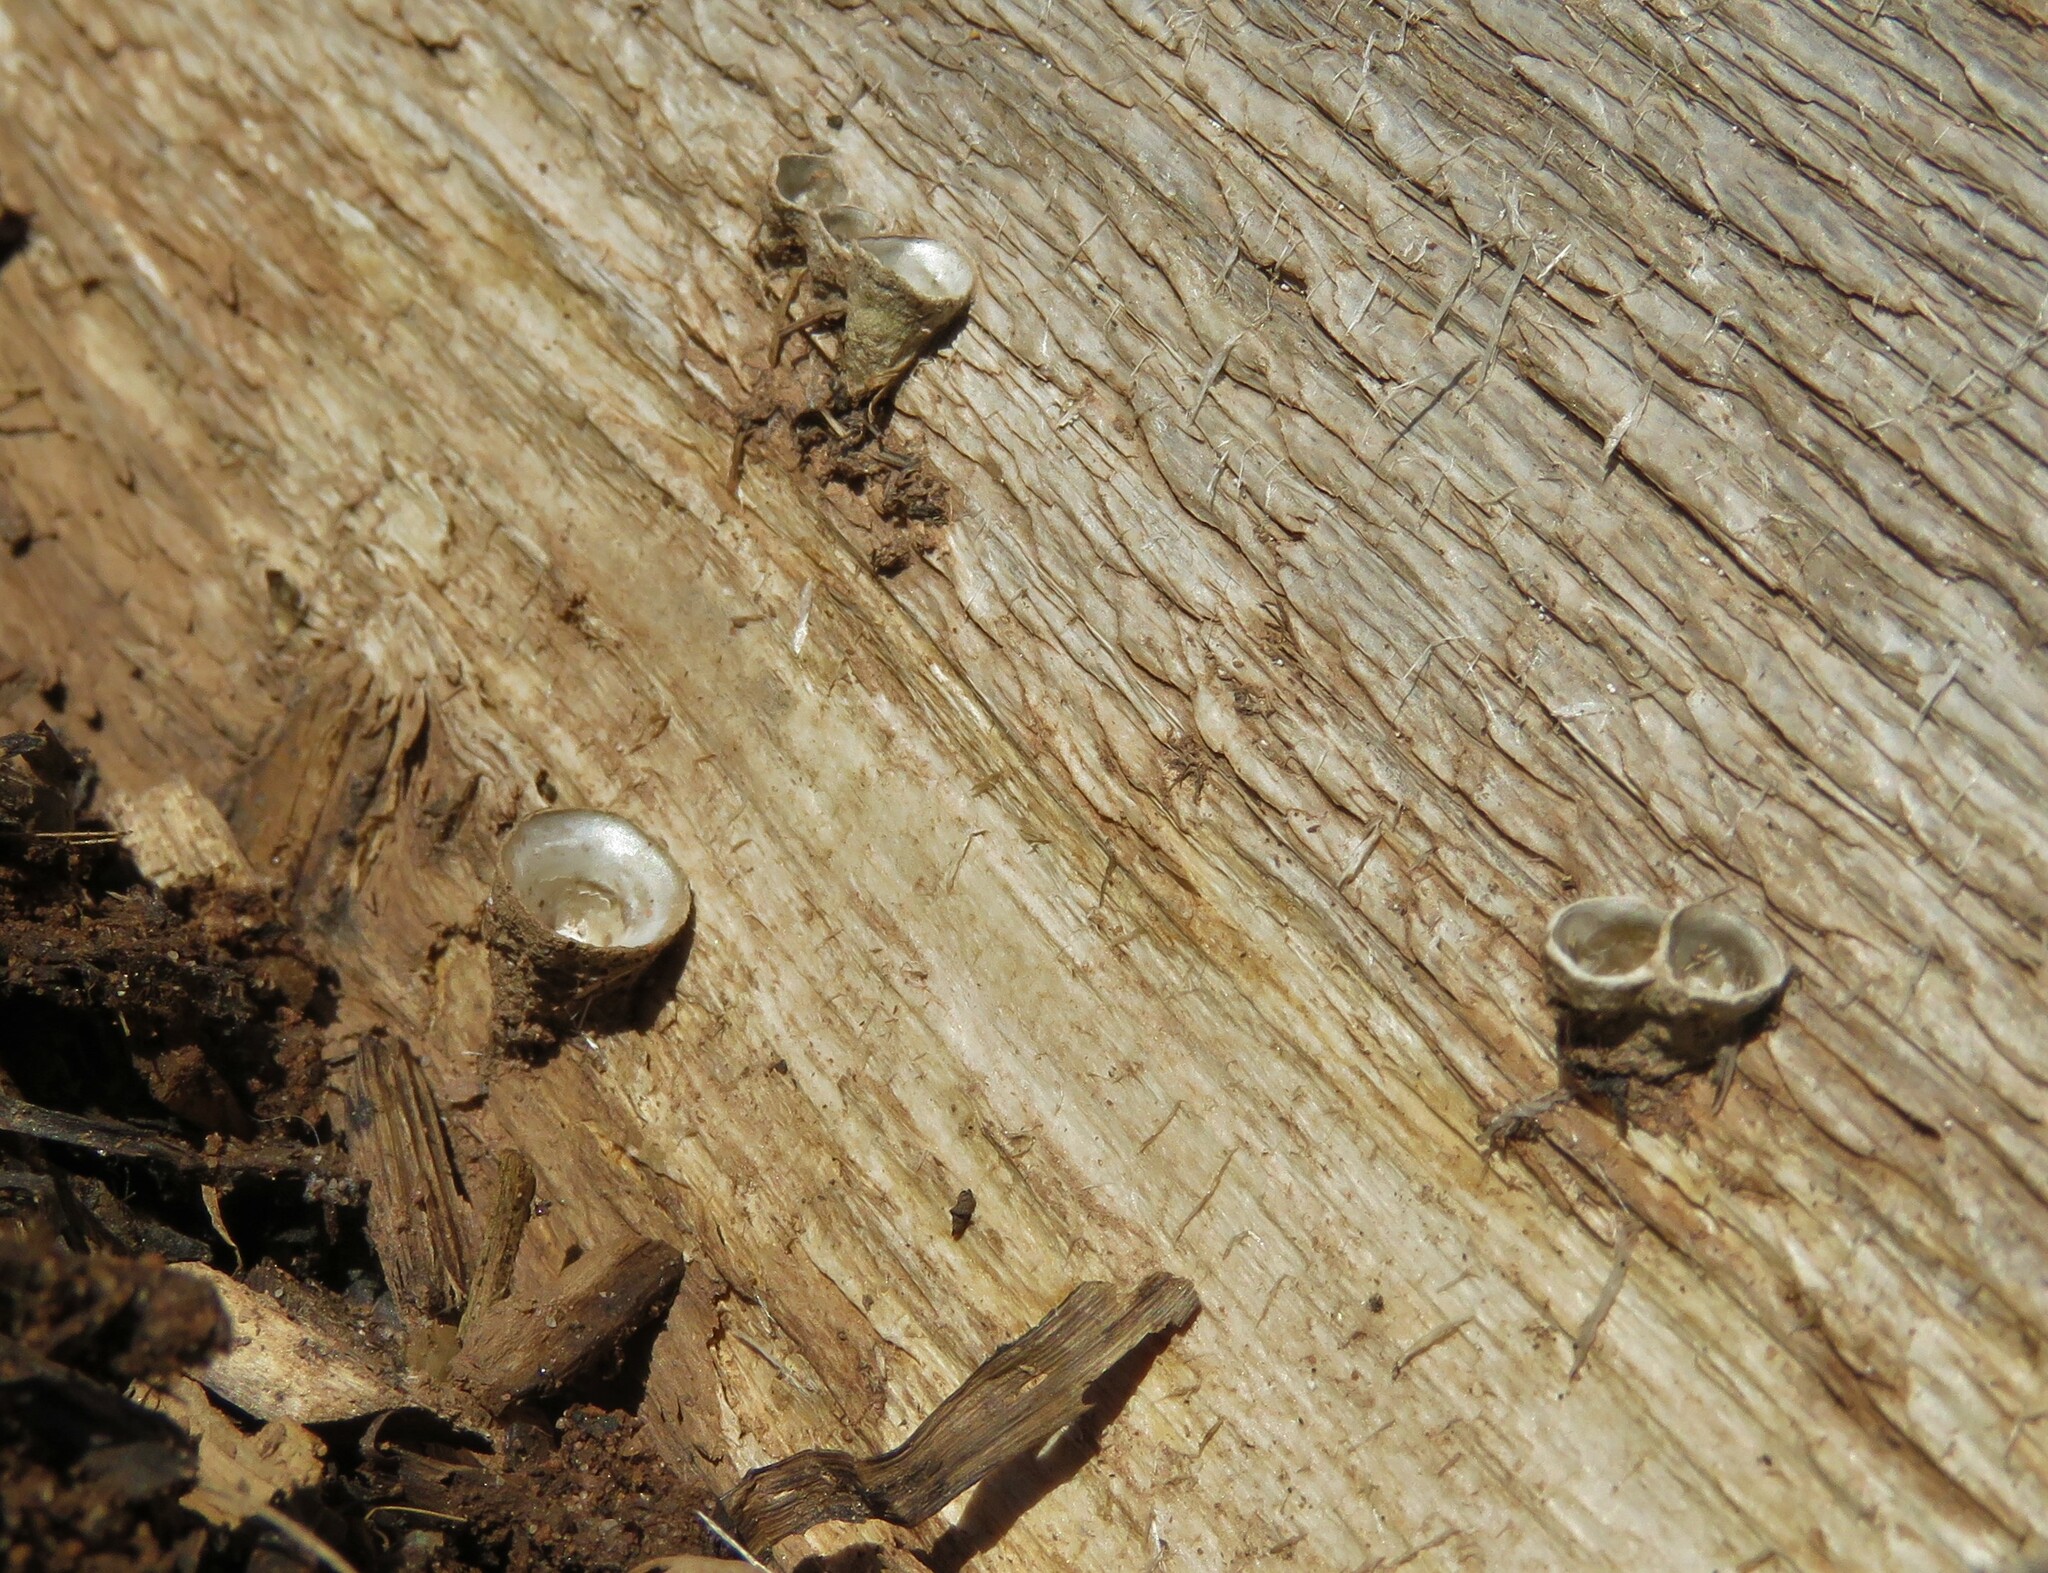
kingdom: Fungi
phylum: Basidiomycota
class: Agaricomycetes
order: Agaricales
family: Nidulariaceae
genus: Crucibulum
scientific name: Crucibulum laeve
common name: Common bird's nest
